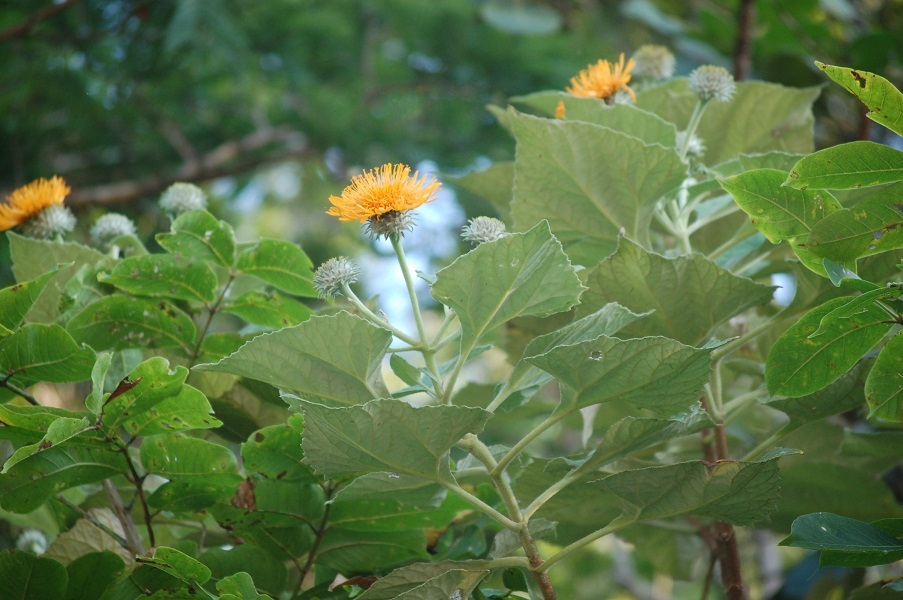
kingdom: Plantae
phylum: Tracheophyta
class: Magnoliopsida
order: Asterales
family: Asteraceae
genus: Sinclairia
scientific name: Sinclairia andrieuxii
